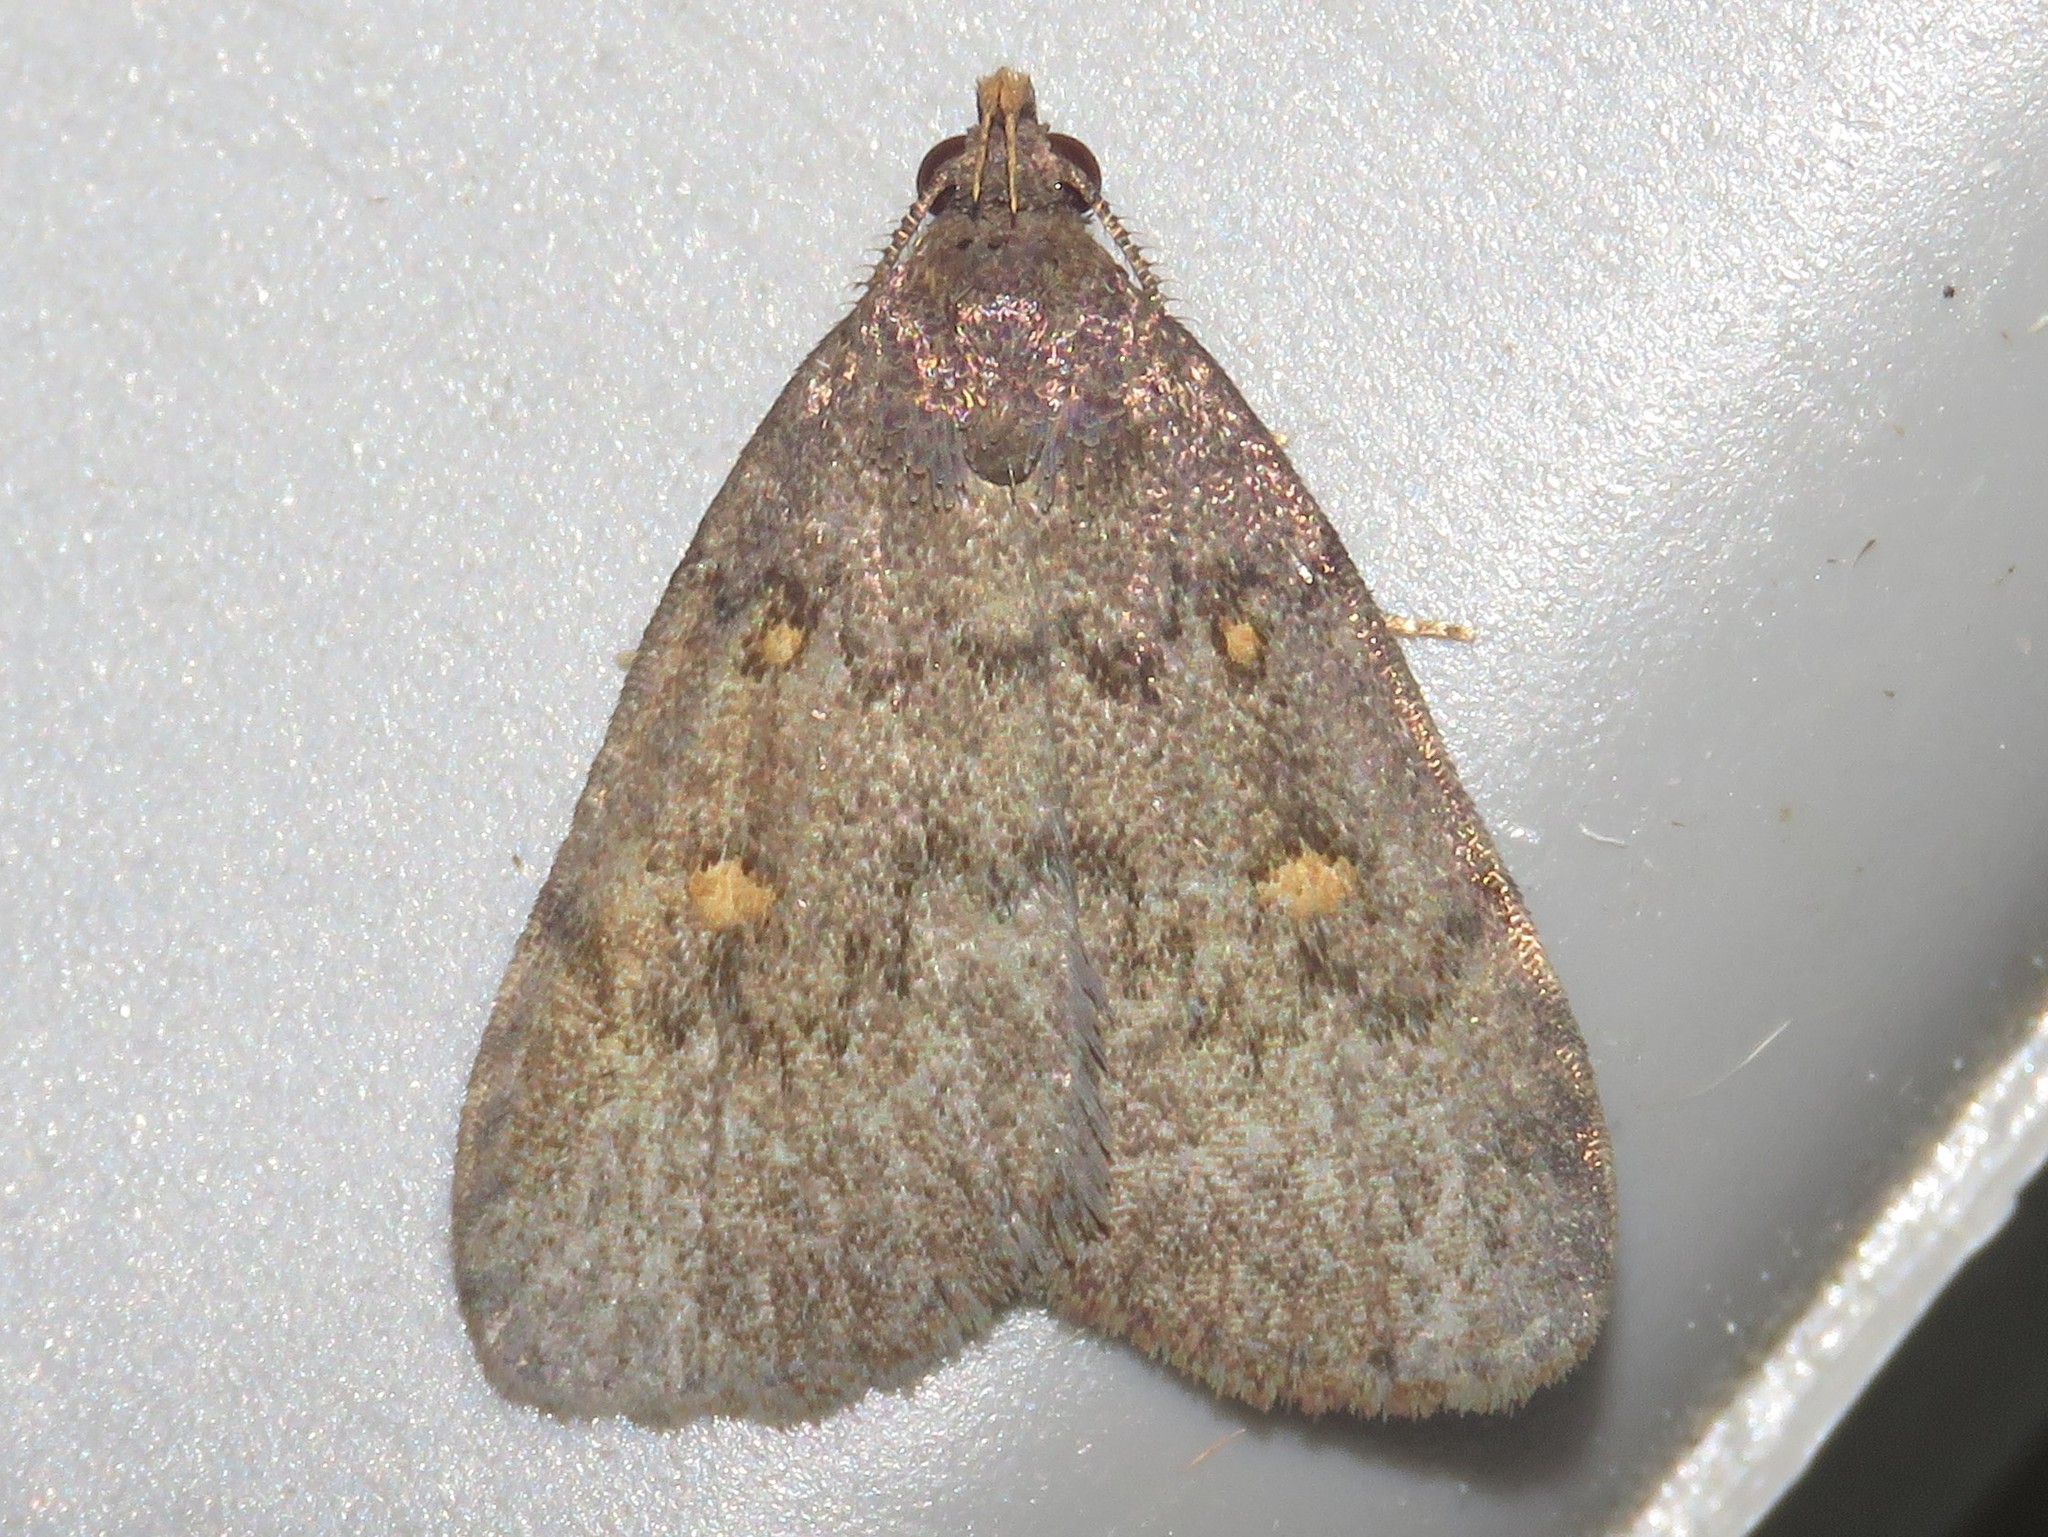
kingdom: Animalia
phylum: Arthropoda
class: Insecta
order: Lepidoptera
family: Erebidae
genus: Idia
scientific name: Idia diminuendis
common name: Orange-spotted idia moth
